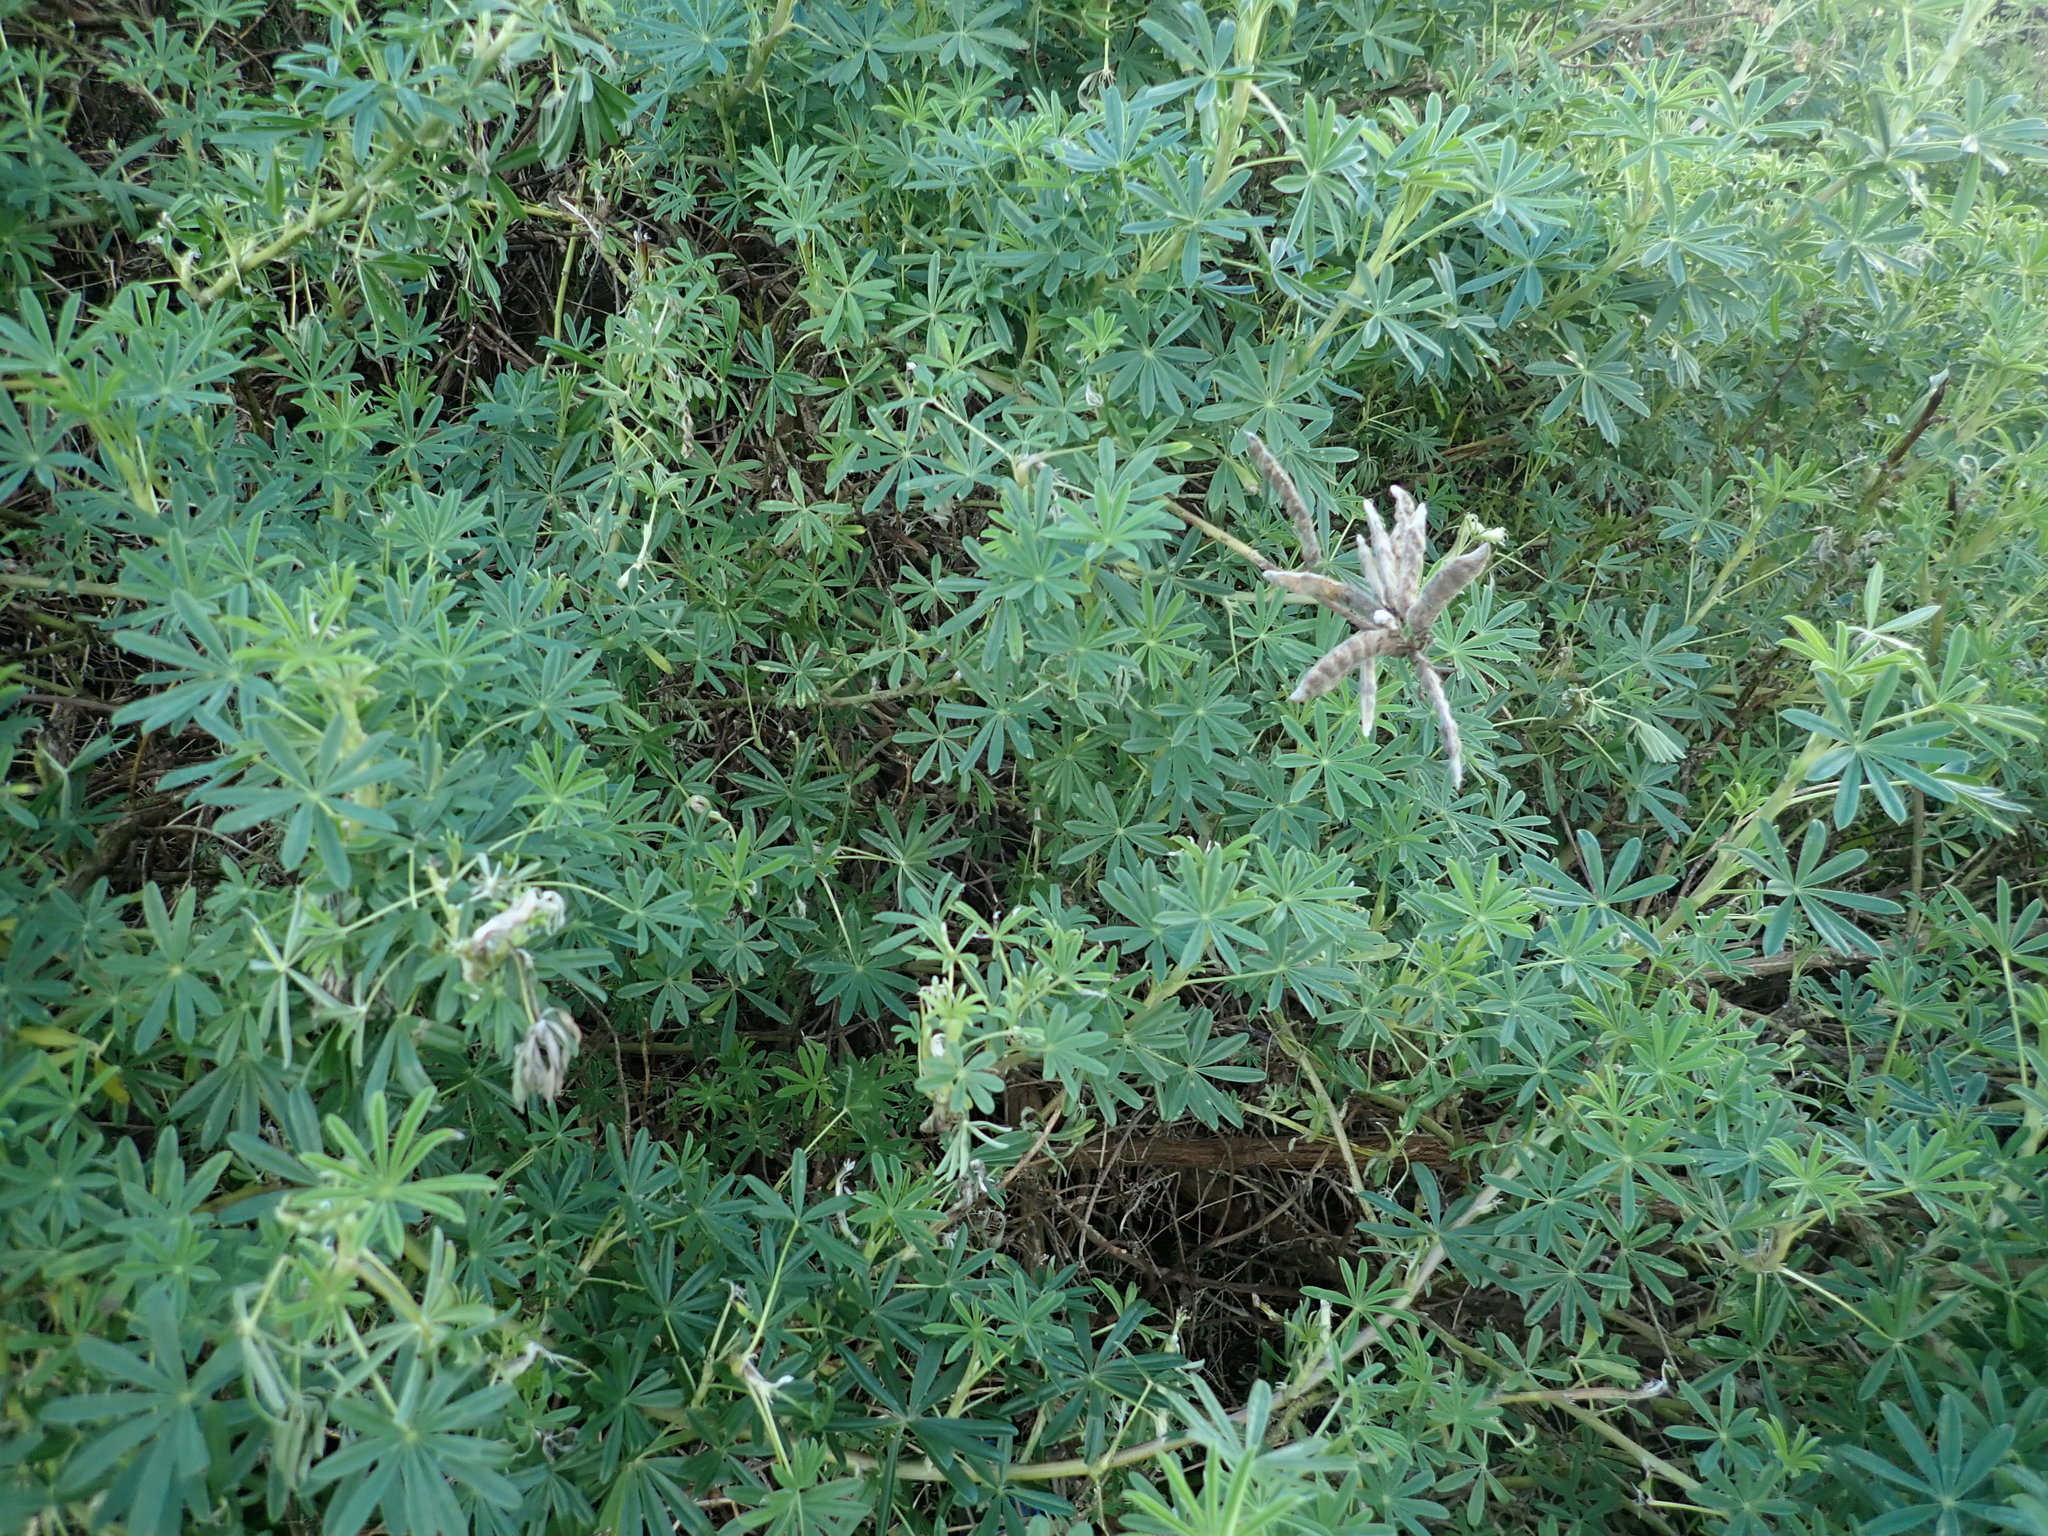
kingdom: Plantae
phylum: Tracheophyta
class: Magnoliopsida
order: Fabales
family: Fabaceae
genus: Lupinus
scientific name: Lupinus arboreus
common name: Yellow bush lupine
